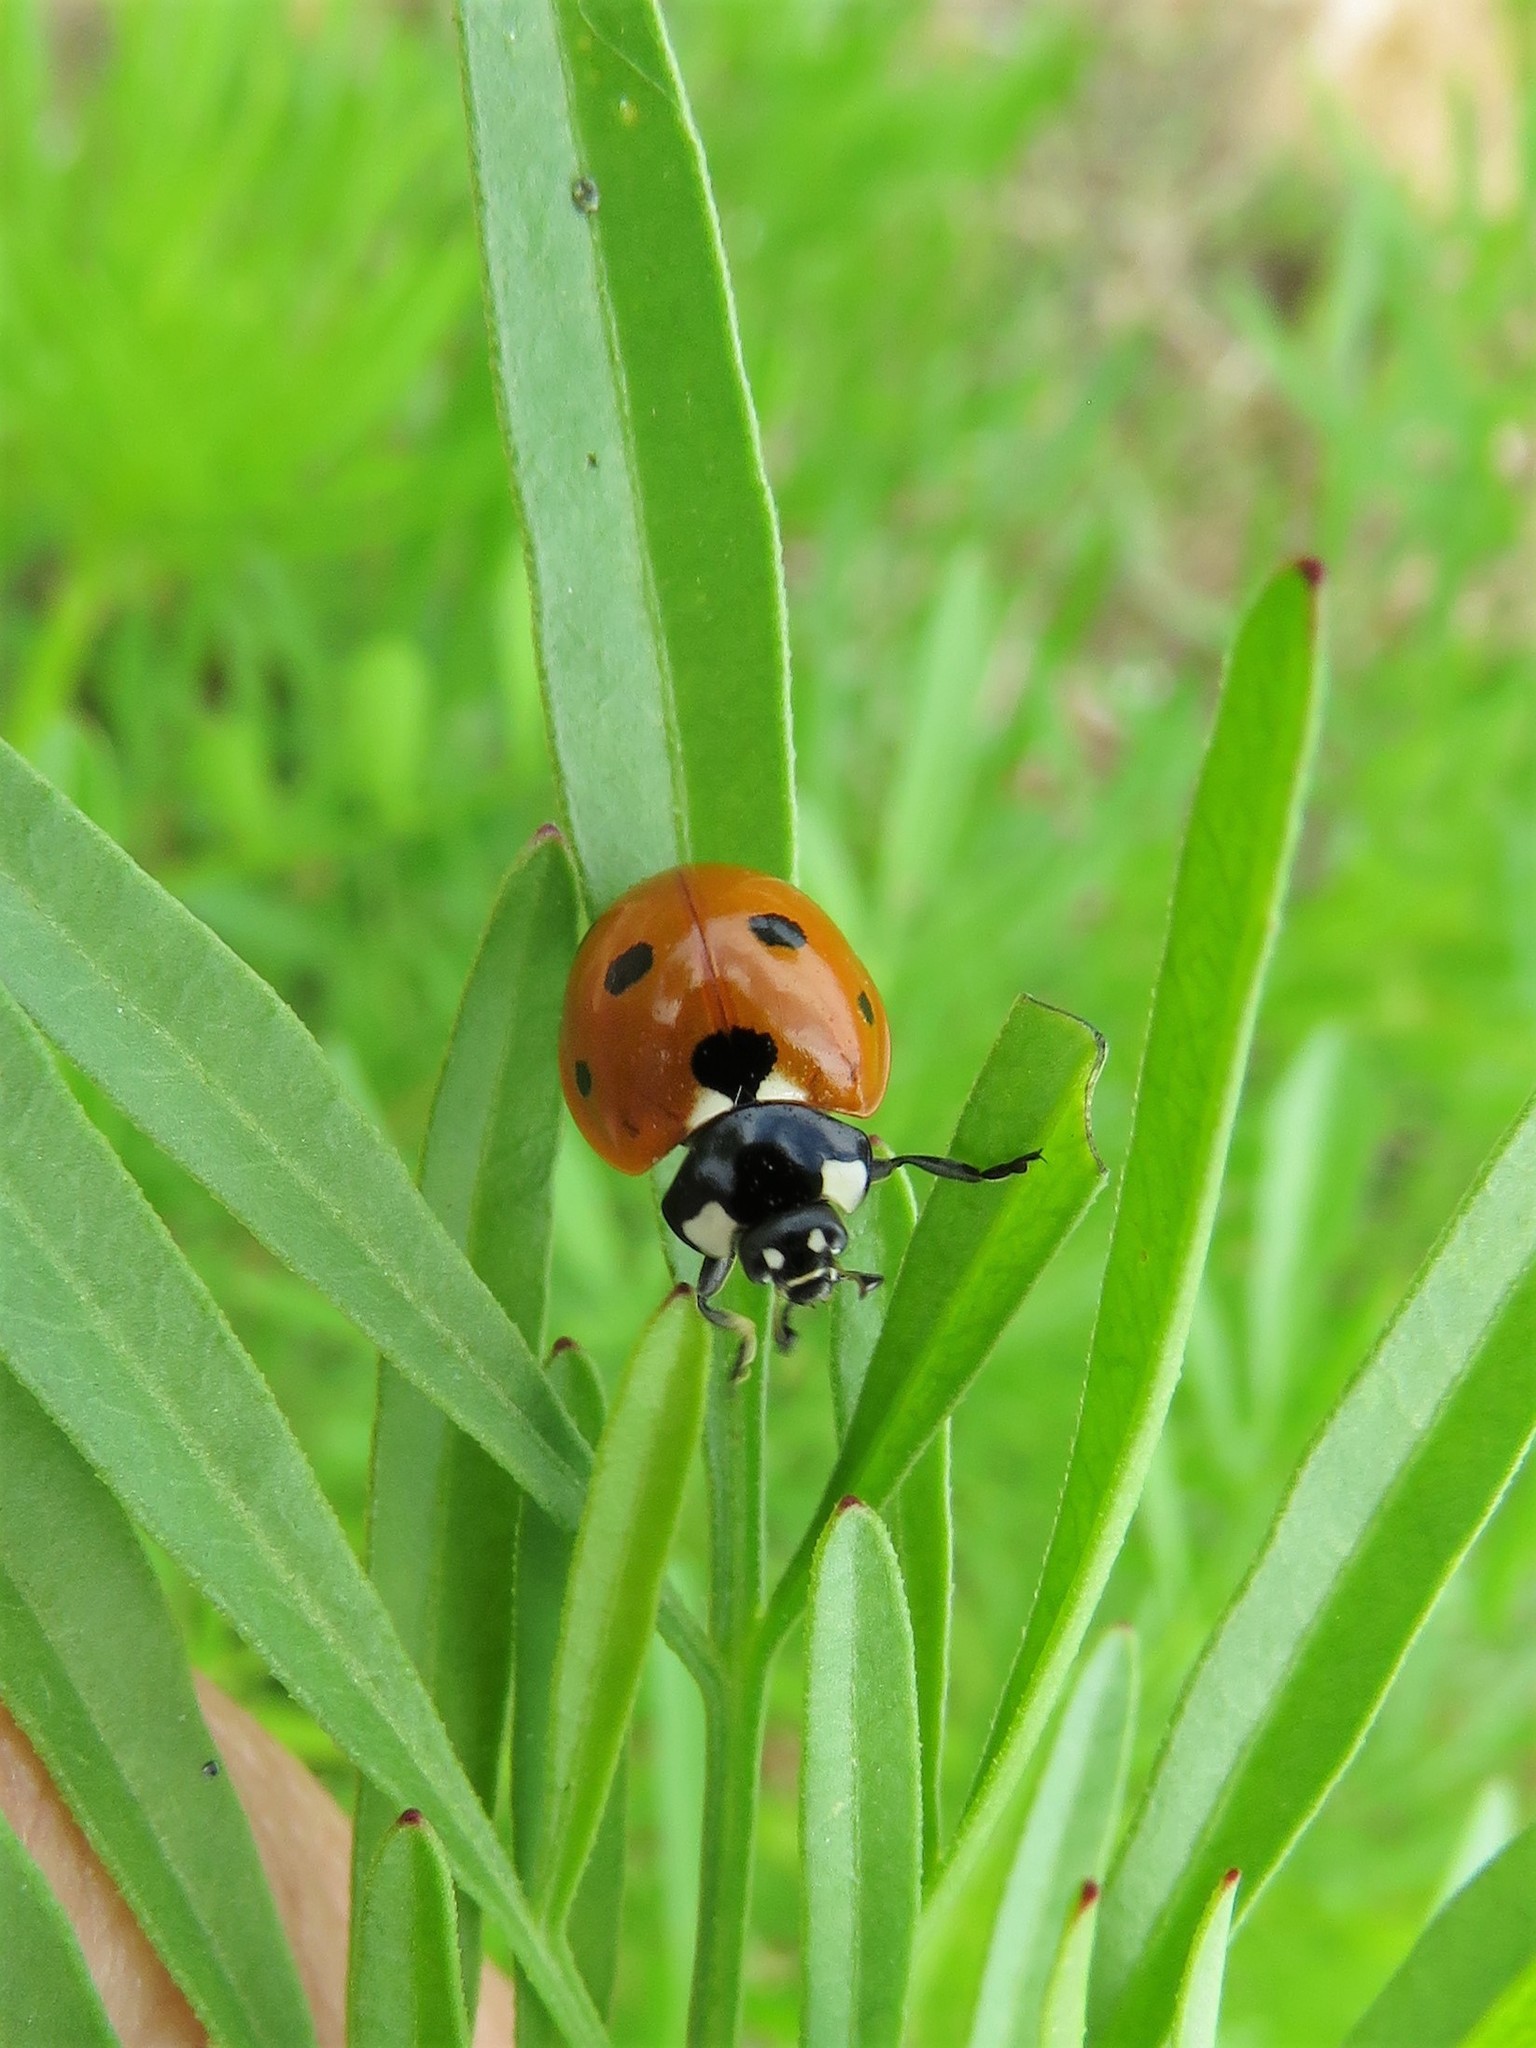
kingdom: Animalia
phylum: Arthropoda
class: Insecta
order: Coleoptera
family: Coccinellidae
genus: Coccinella
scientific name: Coccinella septempunctata
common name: Sevenspotted lady beetle
